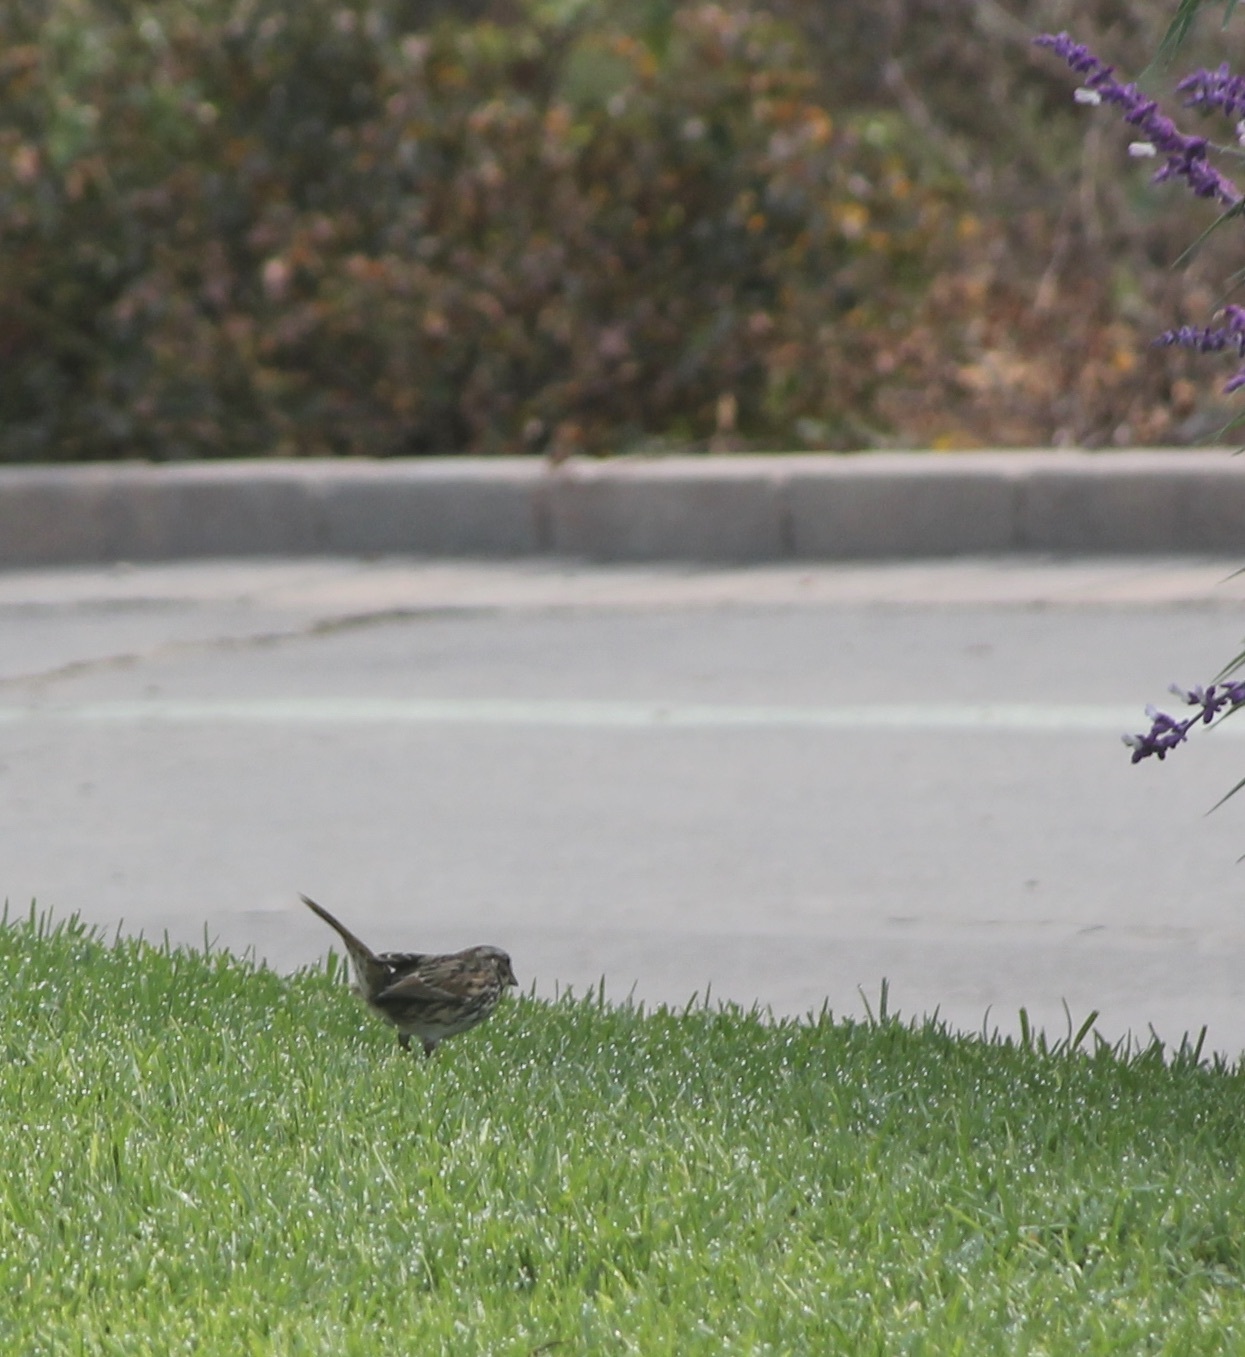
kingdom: Animalia
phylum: Chordata
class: Aves
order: Passeriformes
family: Passerellidae
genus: Melospiza
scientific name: Melospiza melodia
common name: Song sparrow
